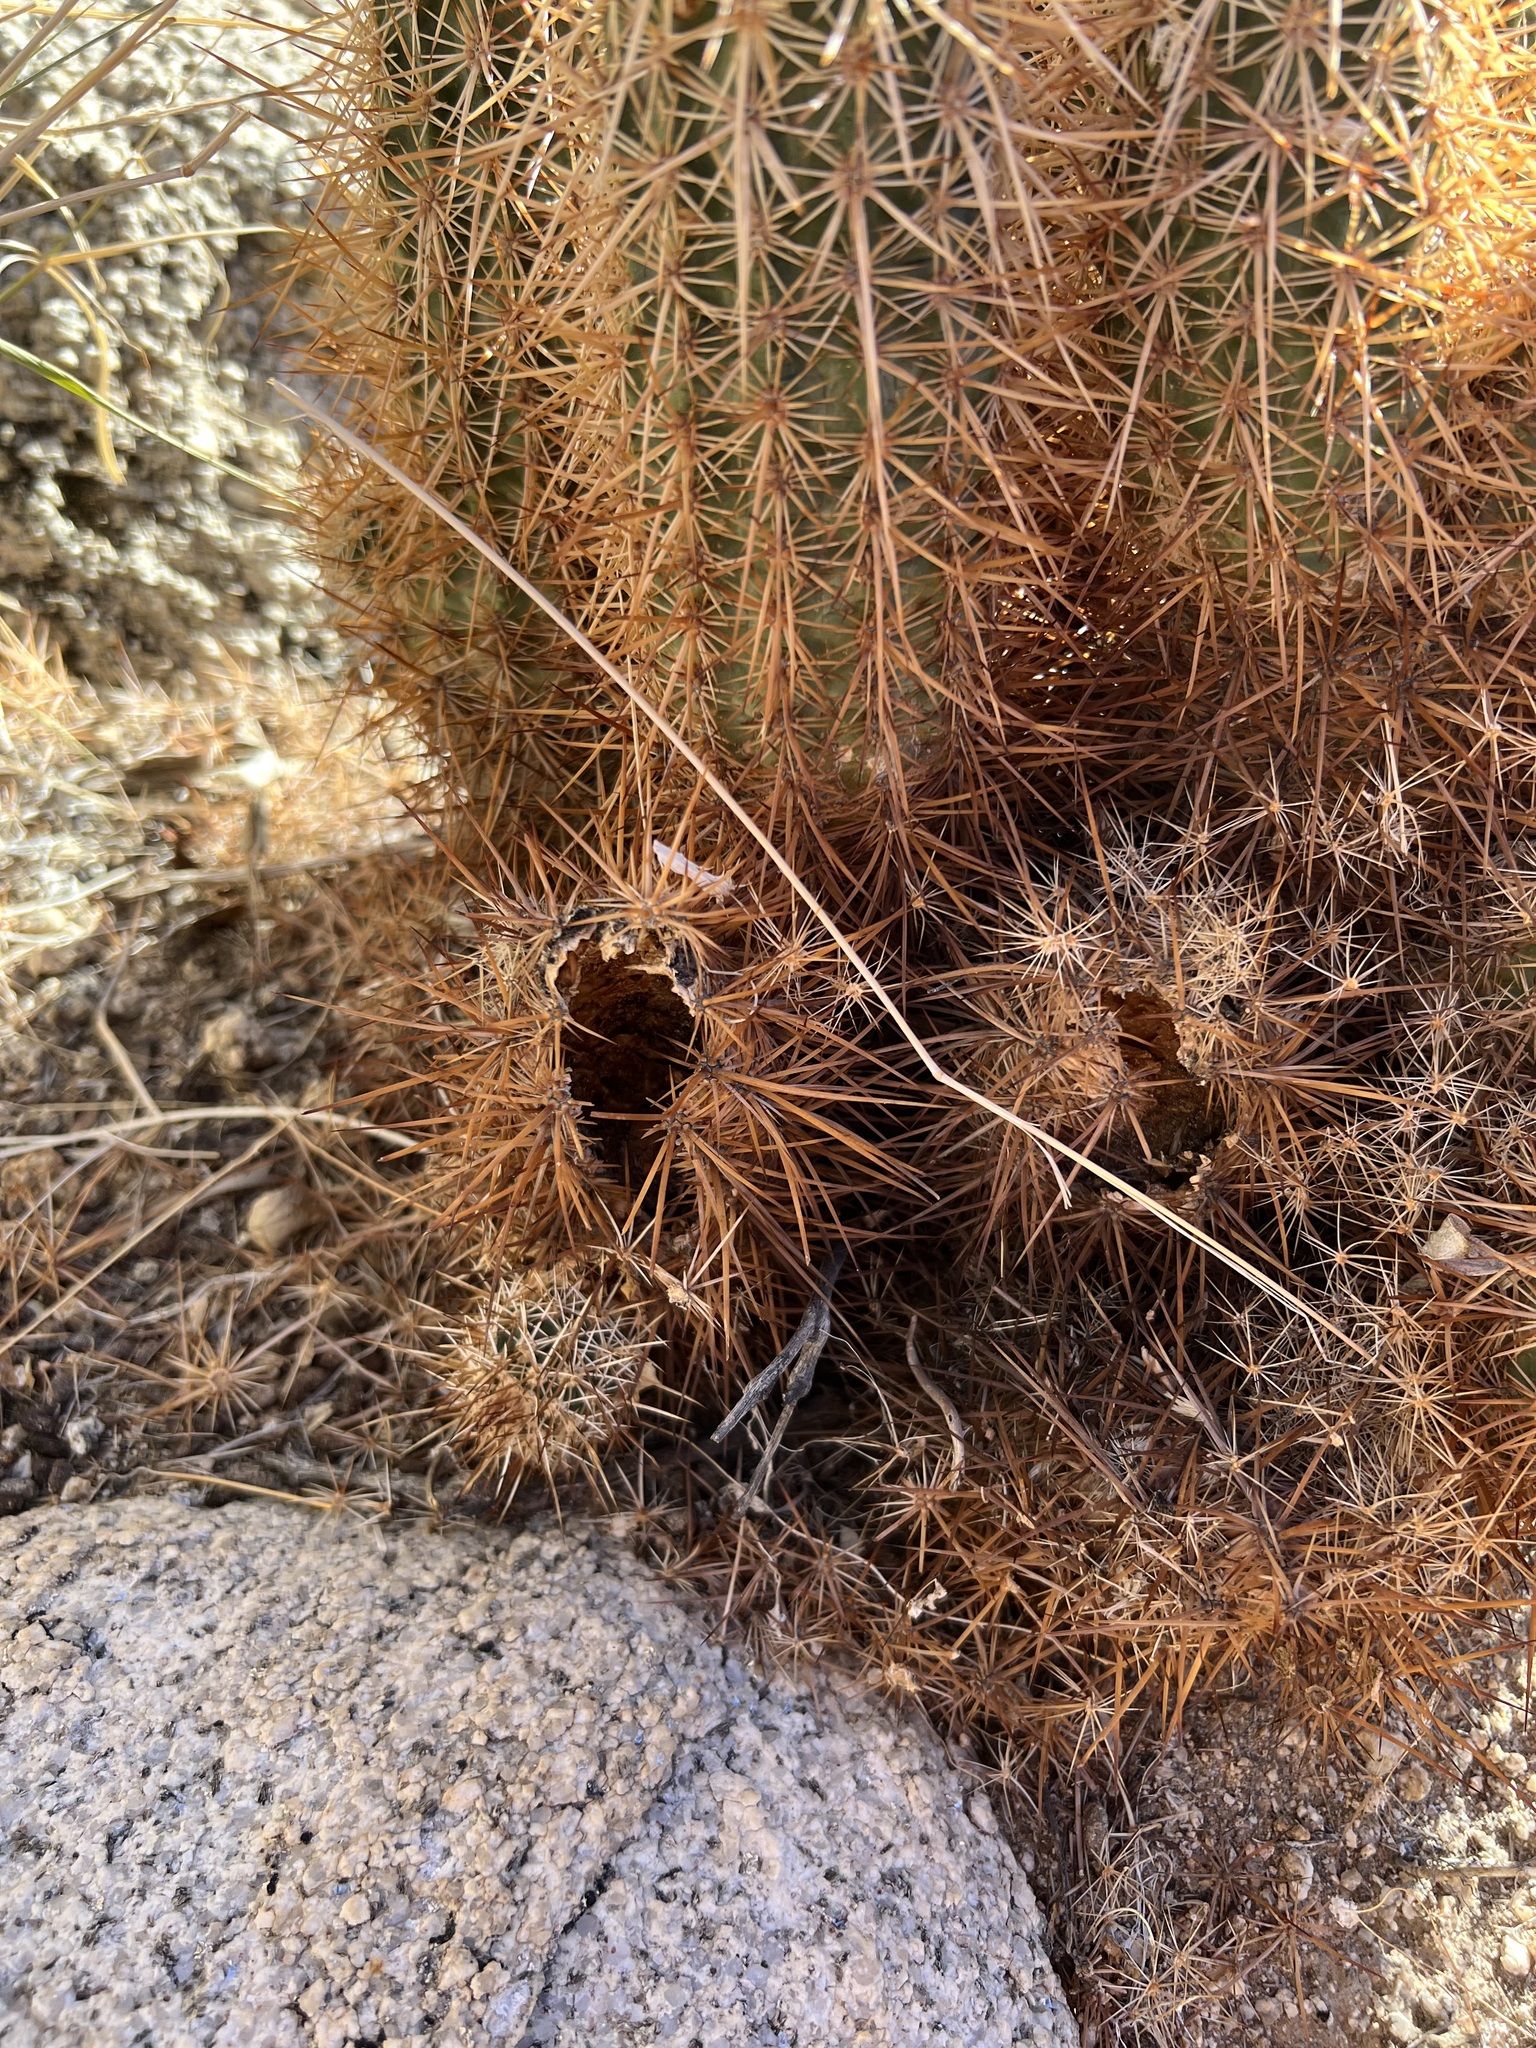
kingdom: Plantae
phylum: Tracheophyta
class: Magnoliopsida
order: Caryophyllales
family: Cactaceae
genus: Echinocereus
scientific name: Echinocereus engelmannii
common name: Engelmann's hedgehog cactus
